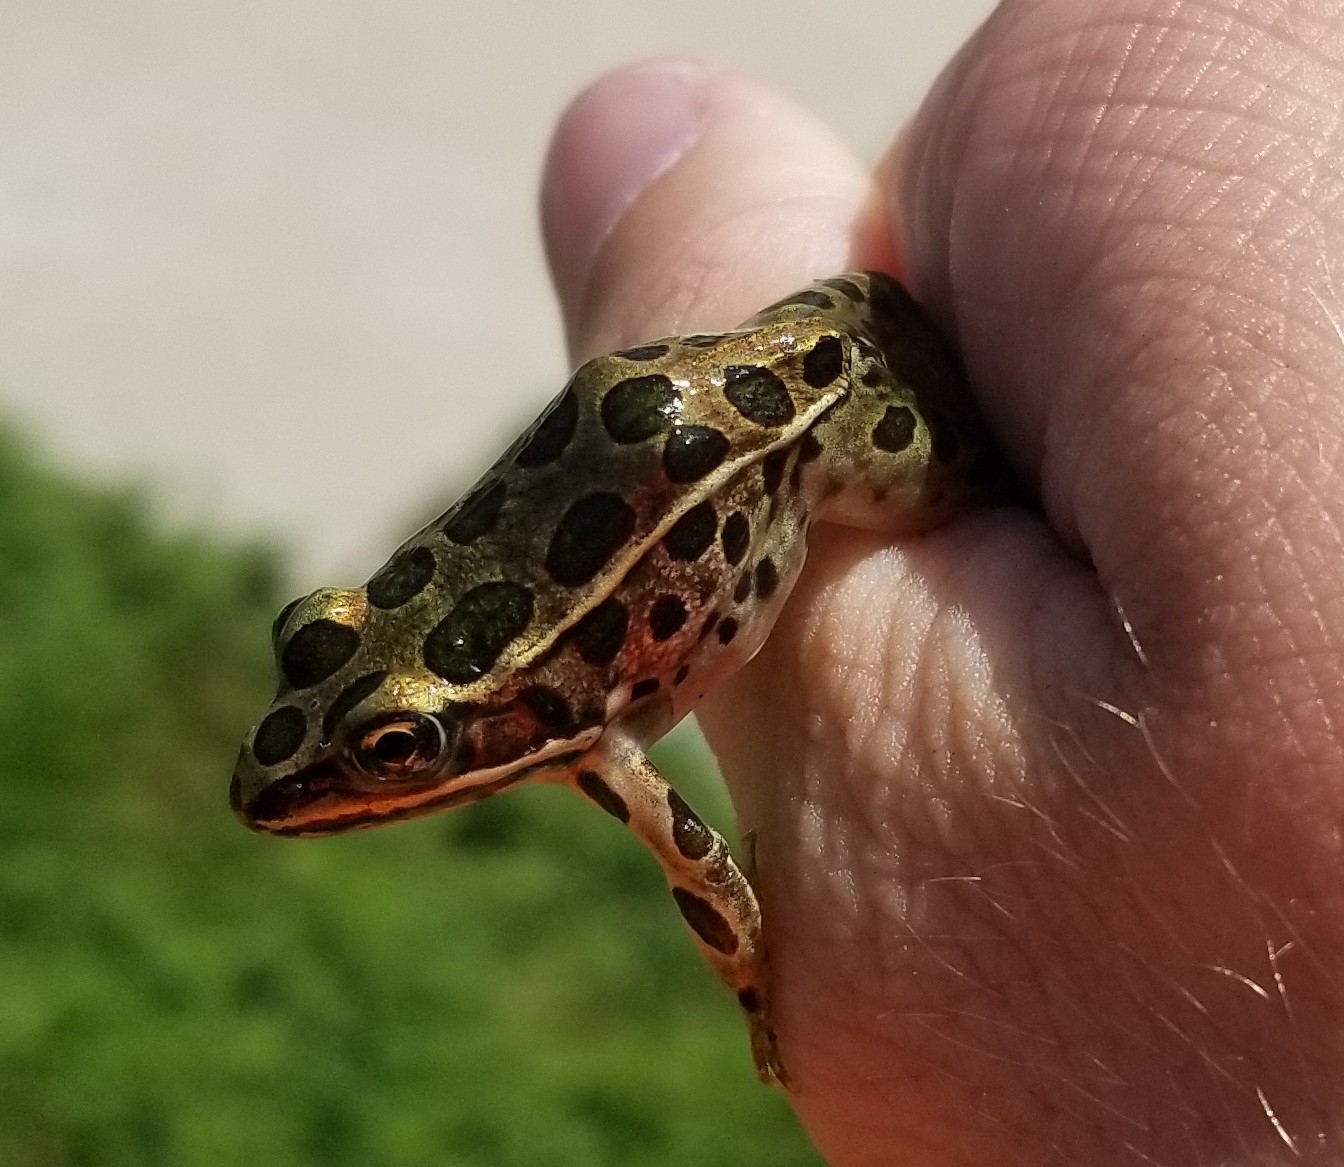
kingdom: Animalia
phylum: Chordata
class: Amphibia
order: Anura
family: Ranidae
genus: Lithobates
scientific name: Lithobates pipiens
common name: Northern leopard frog
